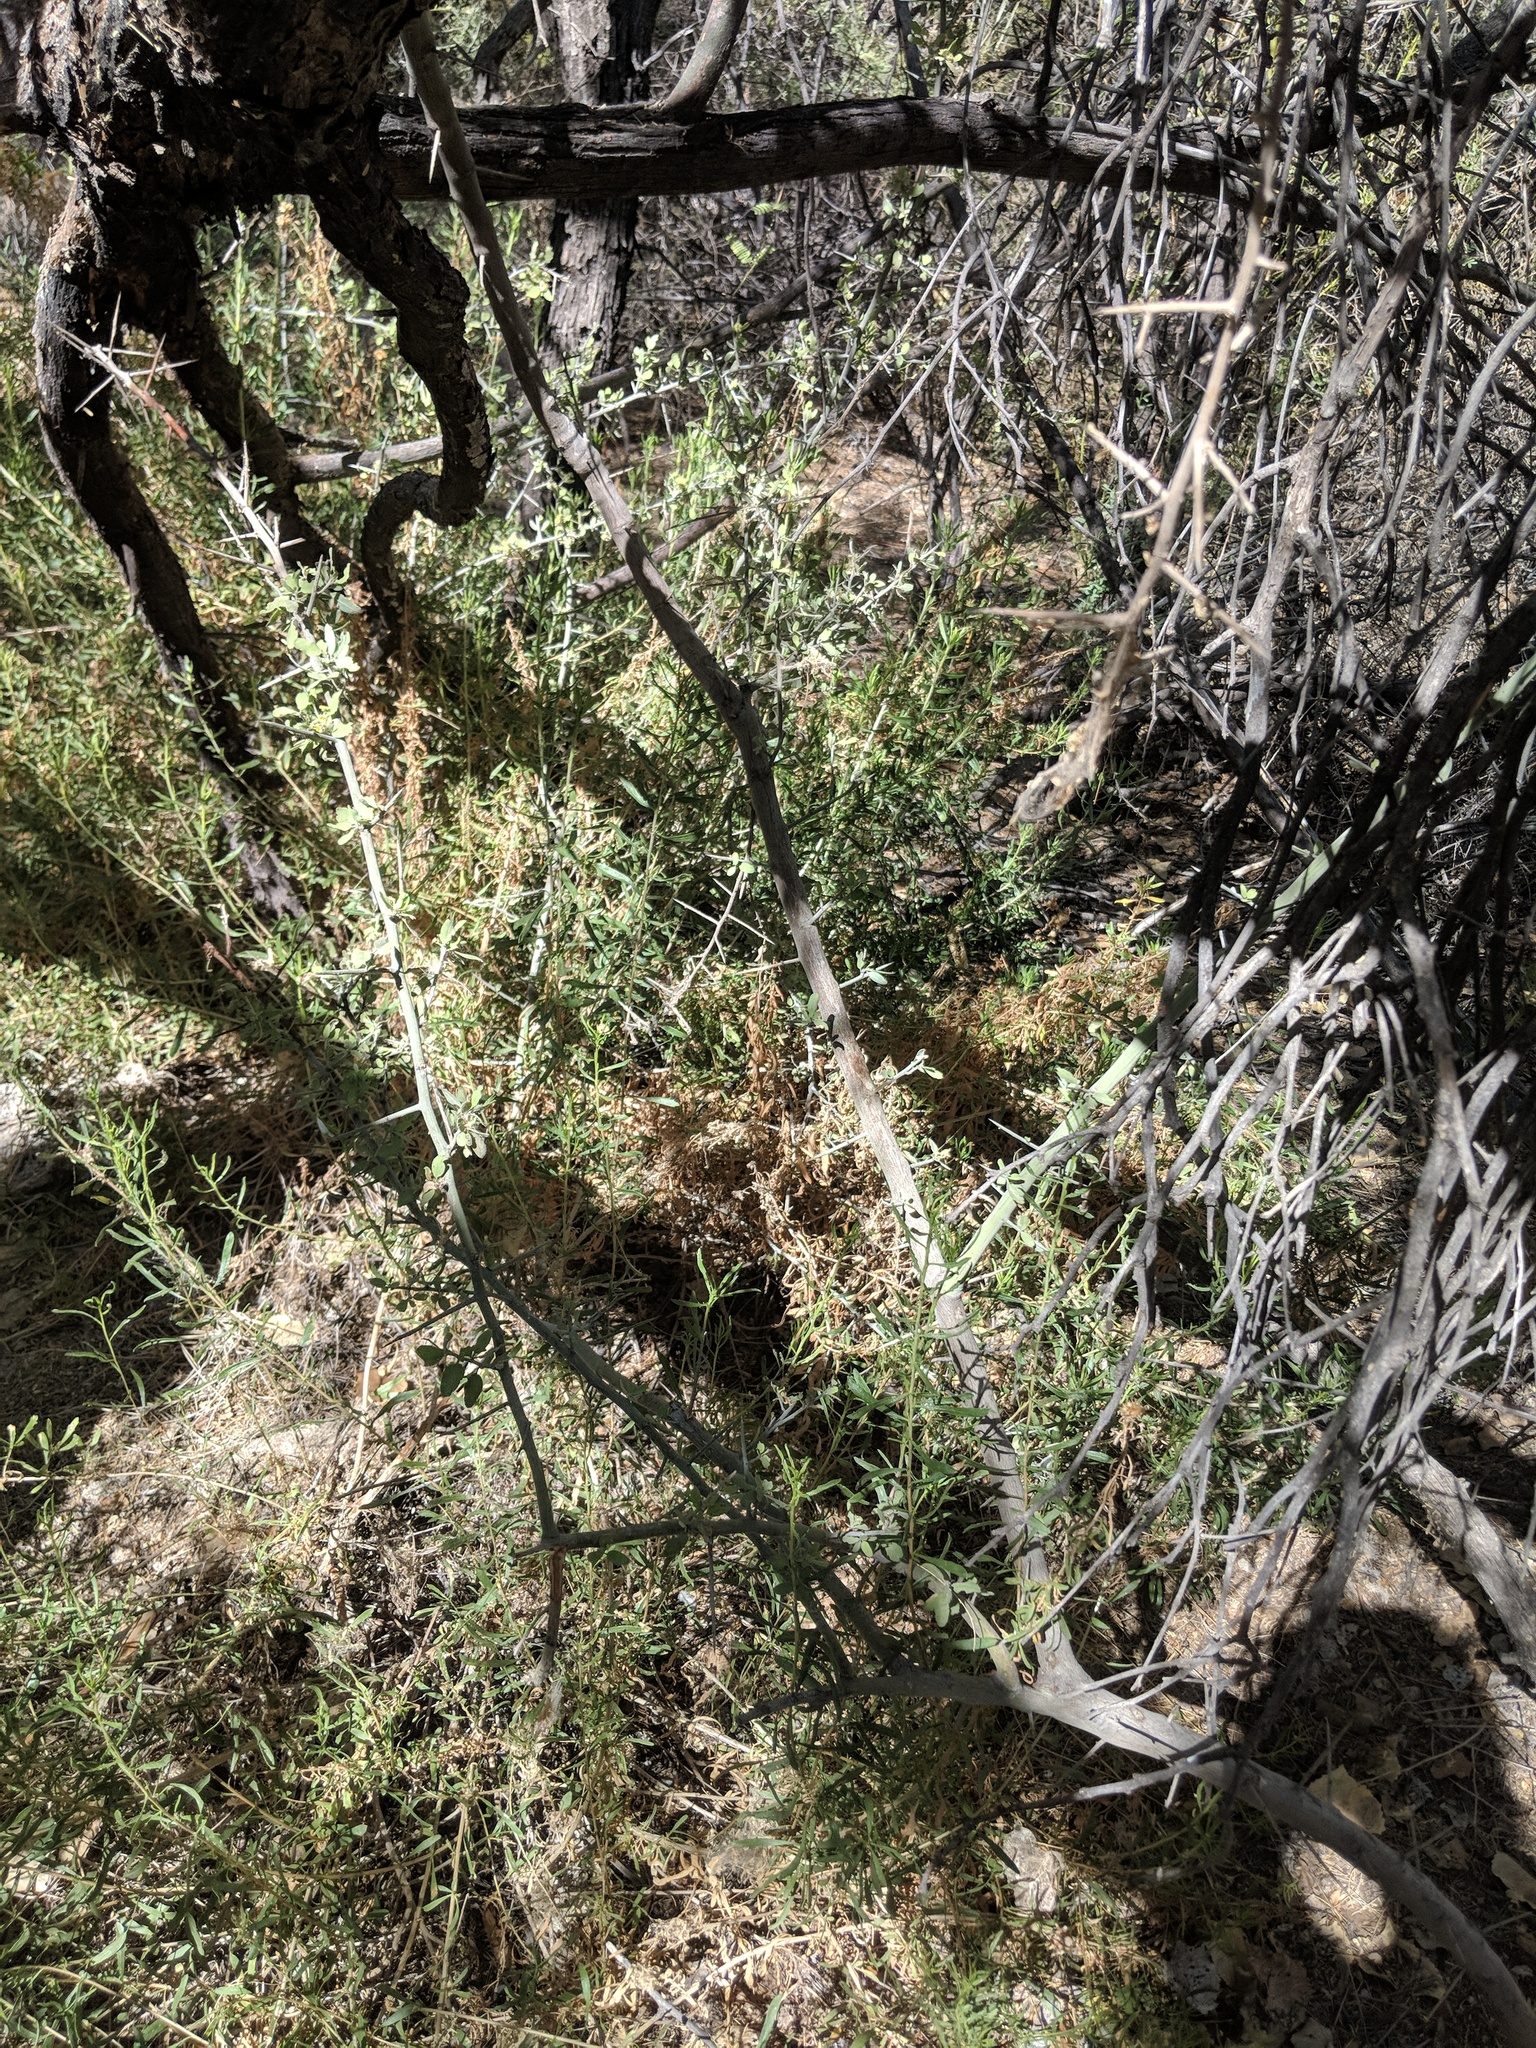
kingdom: Plantae
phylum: Tracheophyta
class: Magnoliopsida
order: Rosales
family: Rhamnaceae
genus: Sarcomphalus
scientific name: Sarcomphalus obtusifolius
